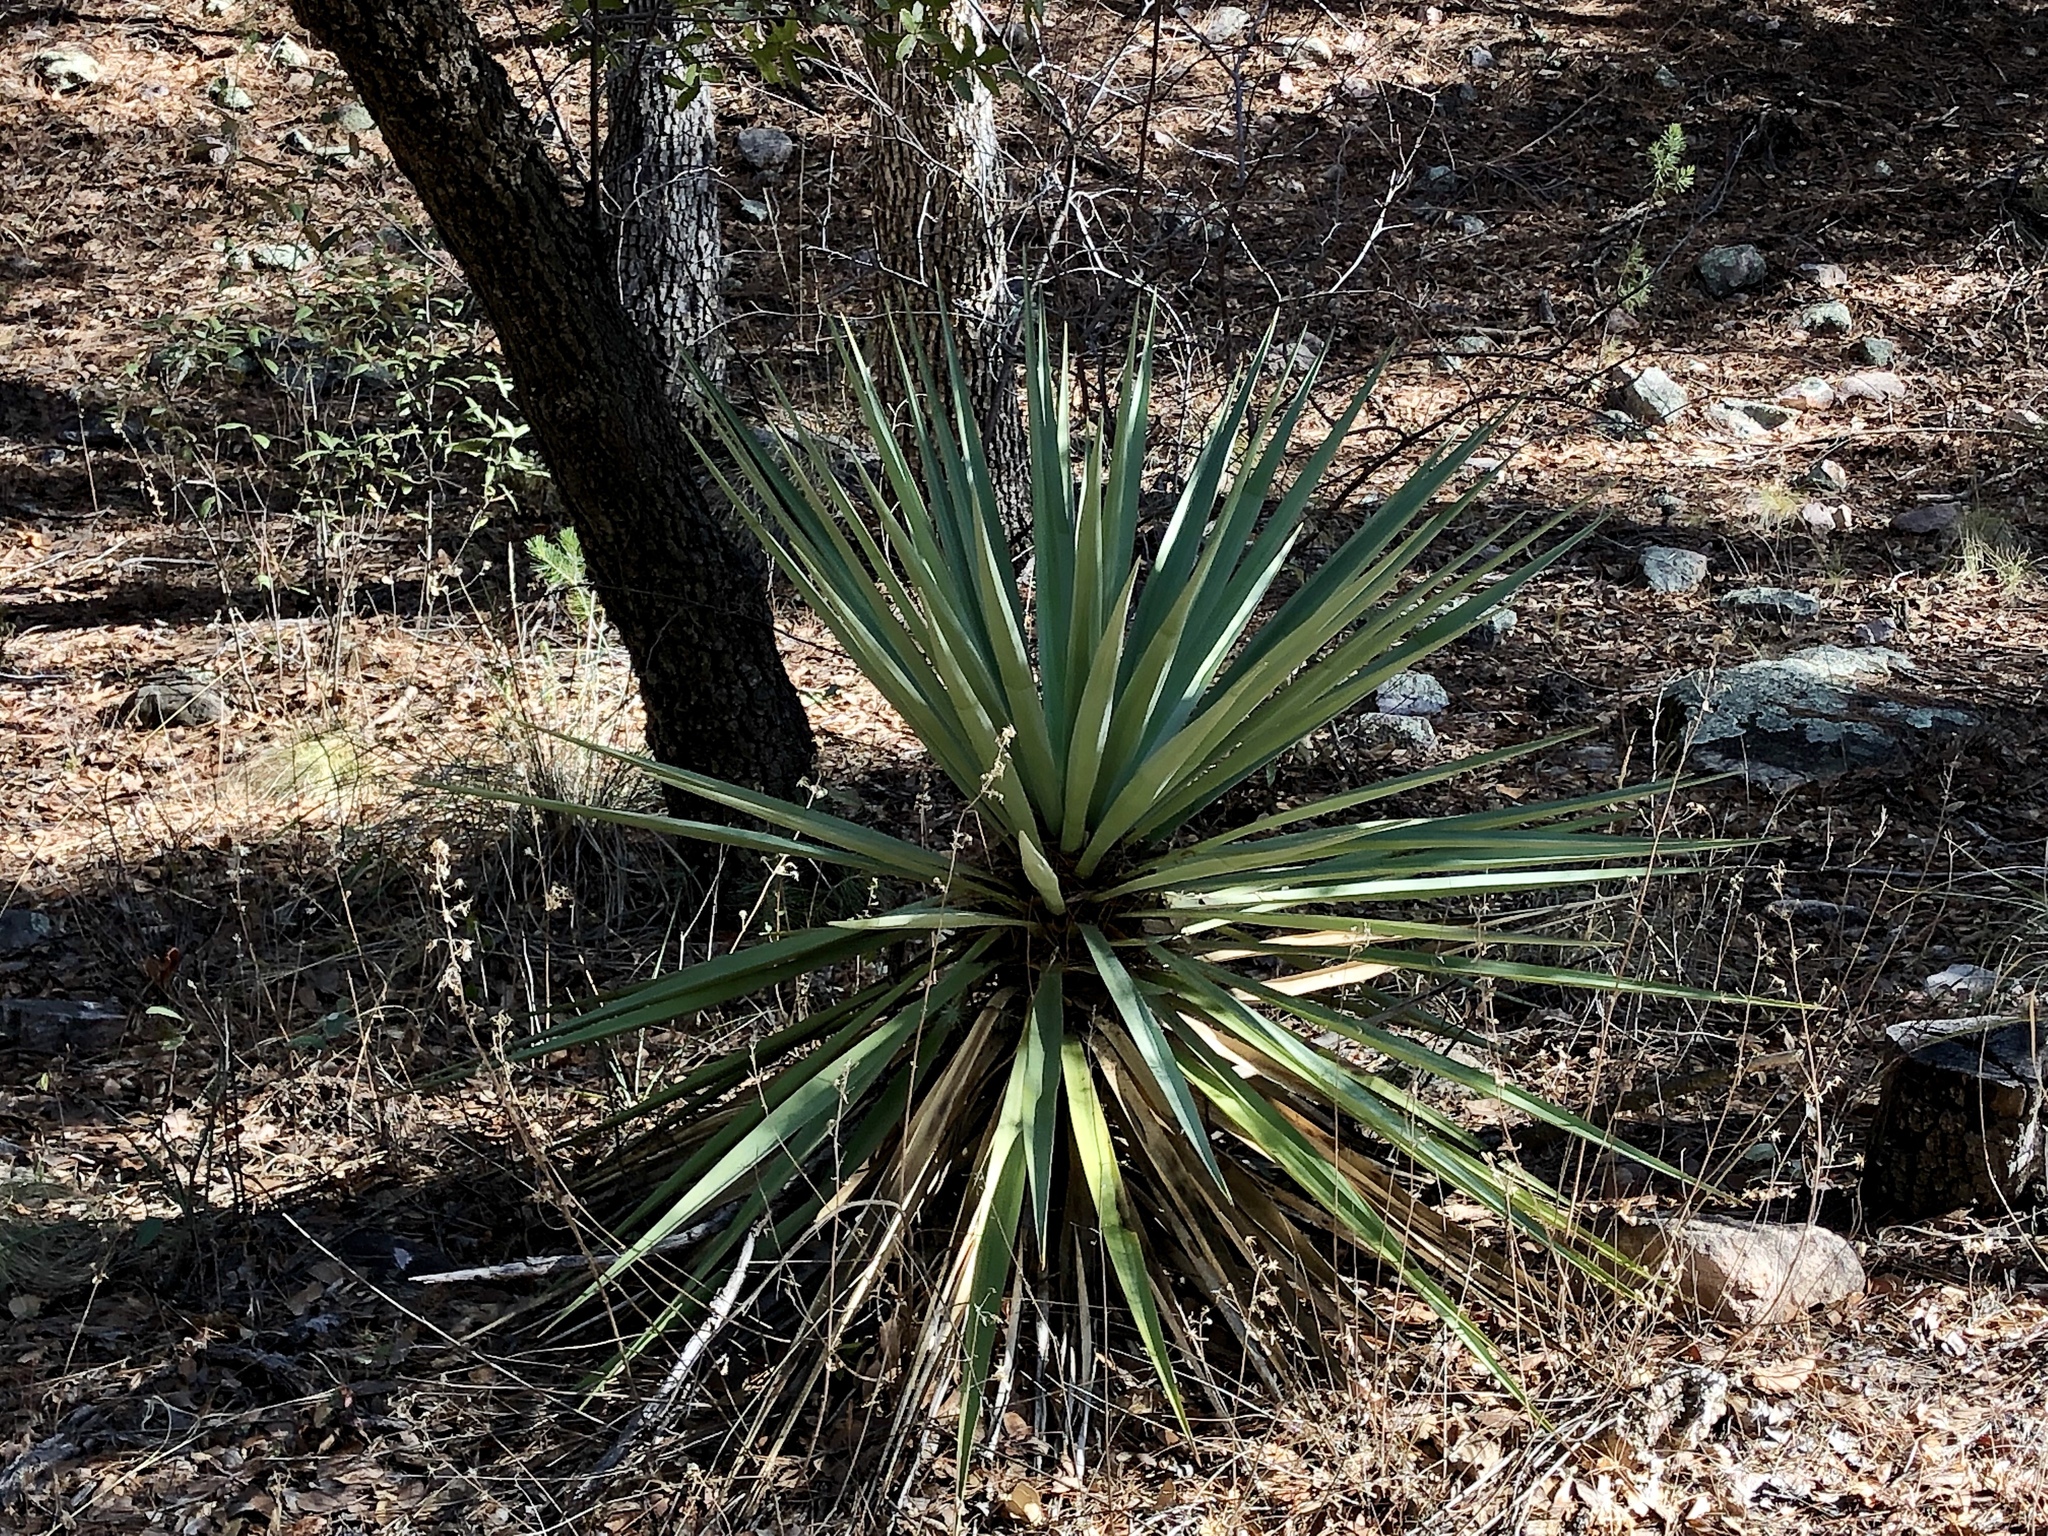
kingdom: Plantae
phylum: Tracheophyta
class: Liliopsida
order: Asparagales
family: Asparagaceae
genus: Yucca
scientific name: Yucca madrensis
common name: Hoary yucca
